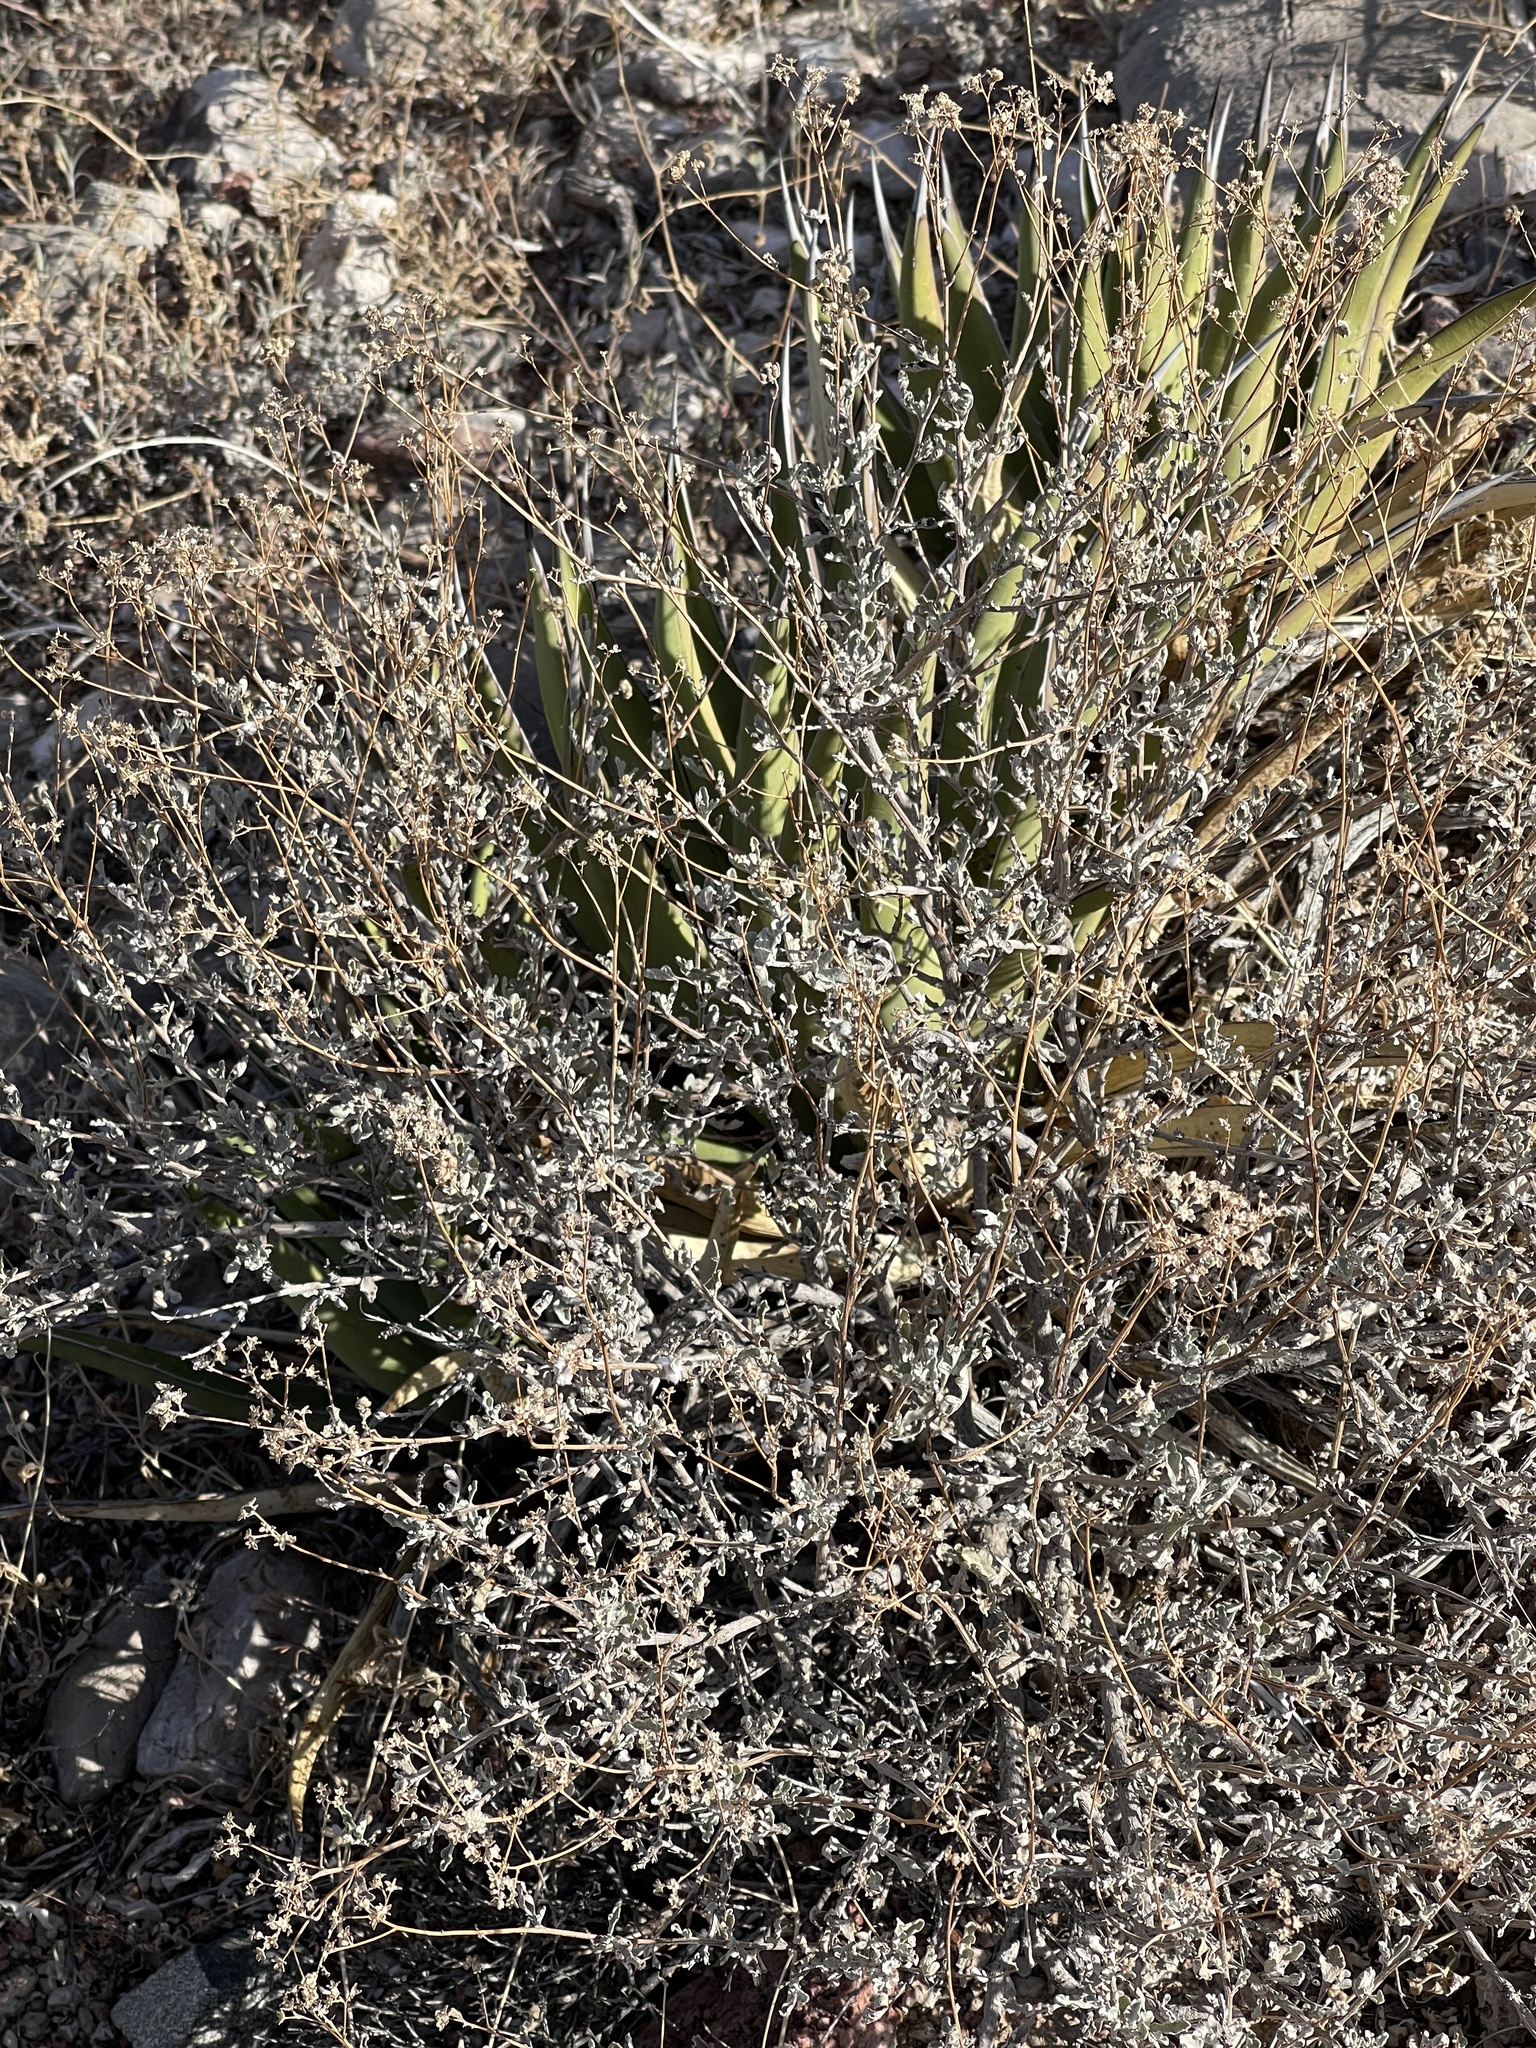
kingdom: Plantae
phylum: Tracheophyta
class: Magnoliopsida
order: Asterales
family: Asteraceae
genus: Parthenium
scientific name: Parthenium incanum
